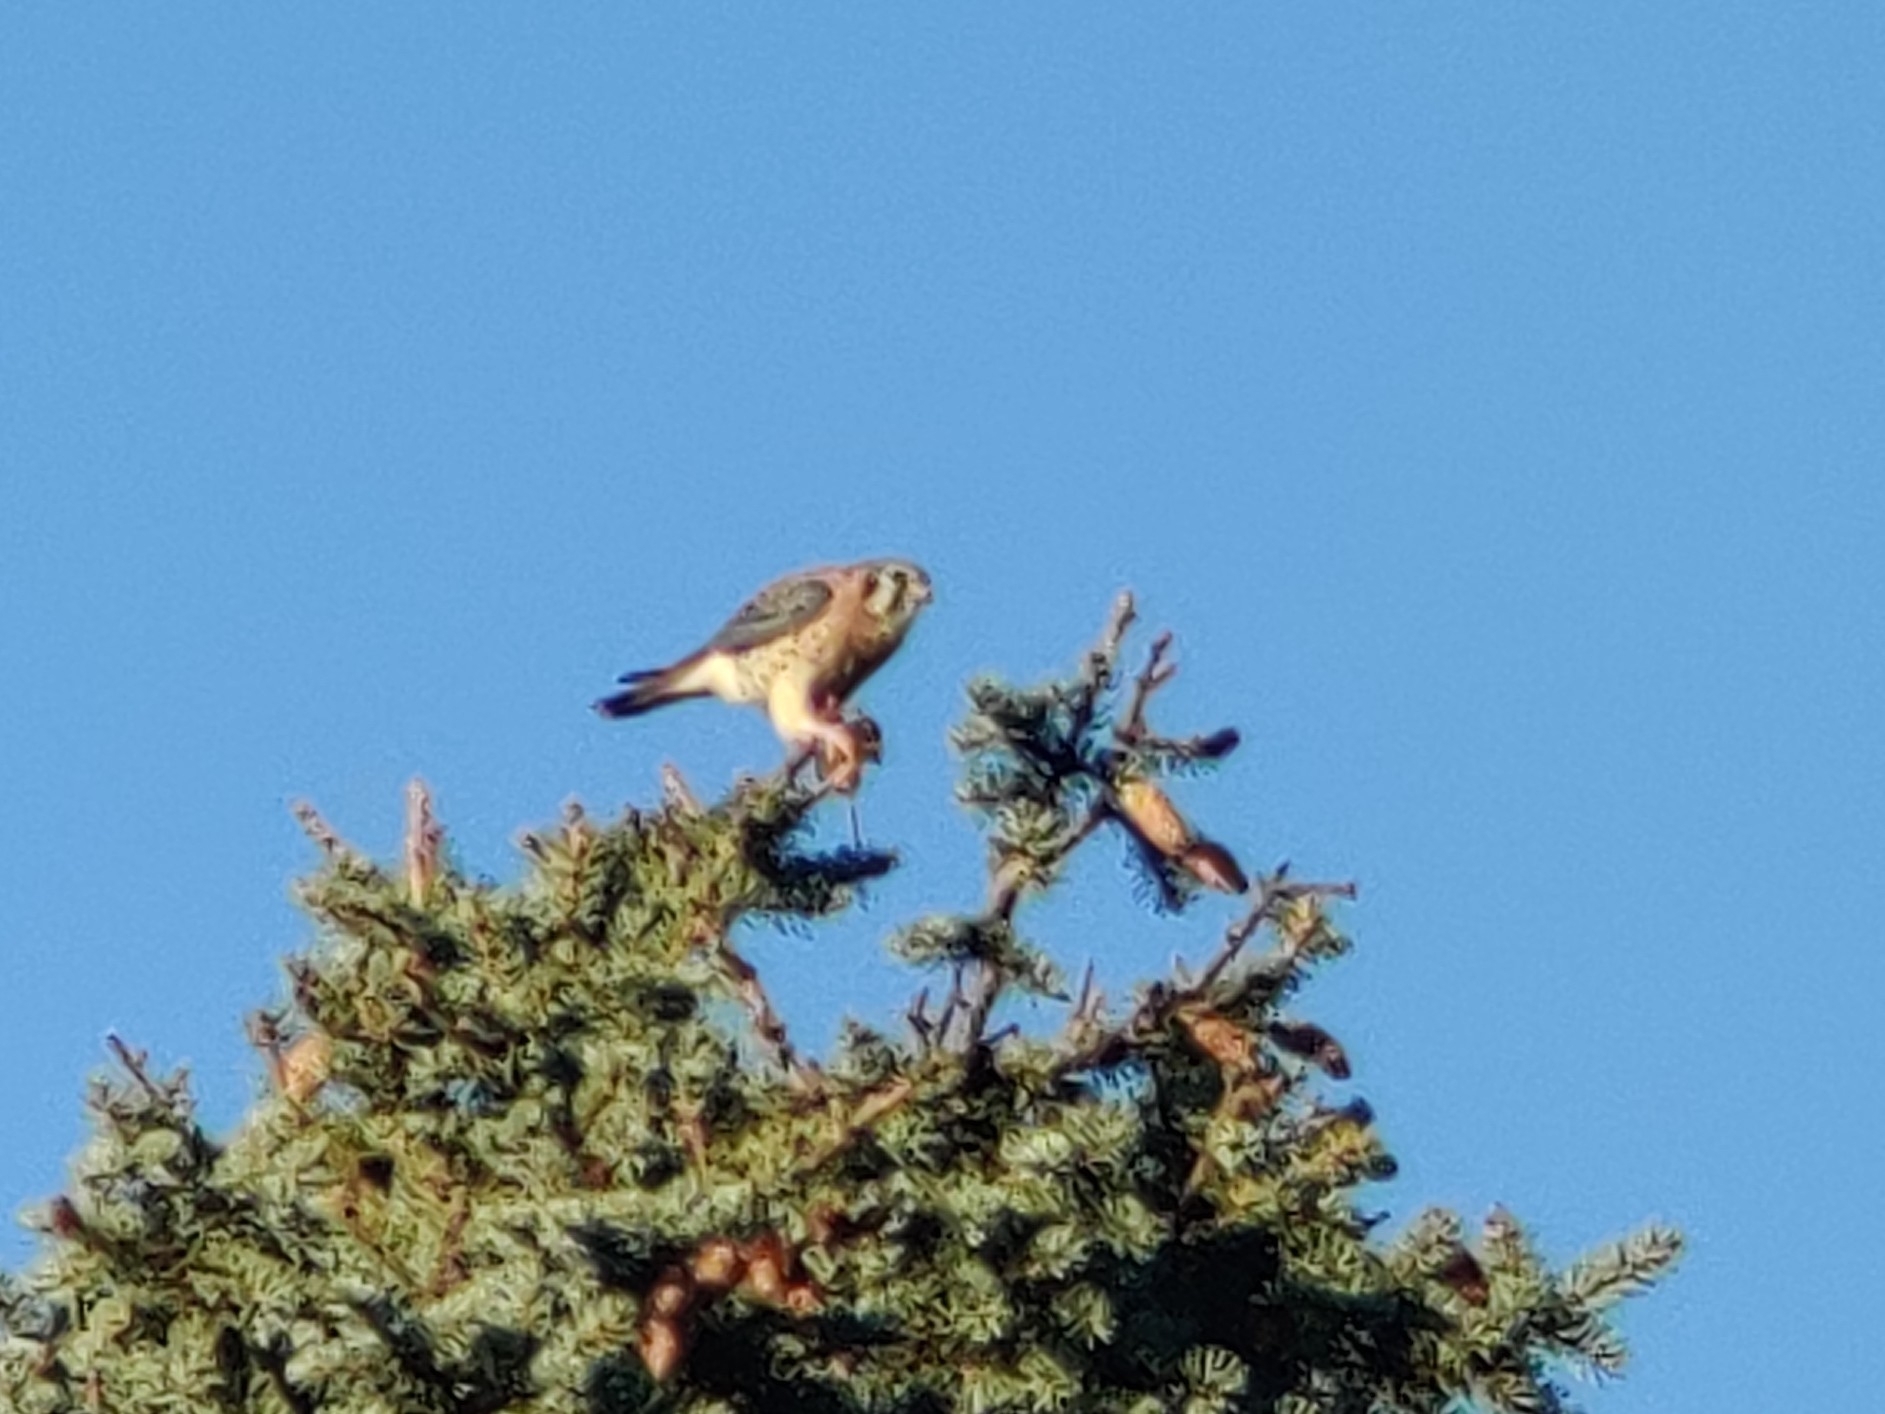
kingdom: Animalia
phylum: Chordata
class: Aves
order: Falconiformes
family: Falconidae
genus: Falco
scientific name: Falco sparverius
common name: American kestrel
